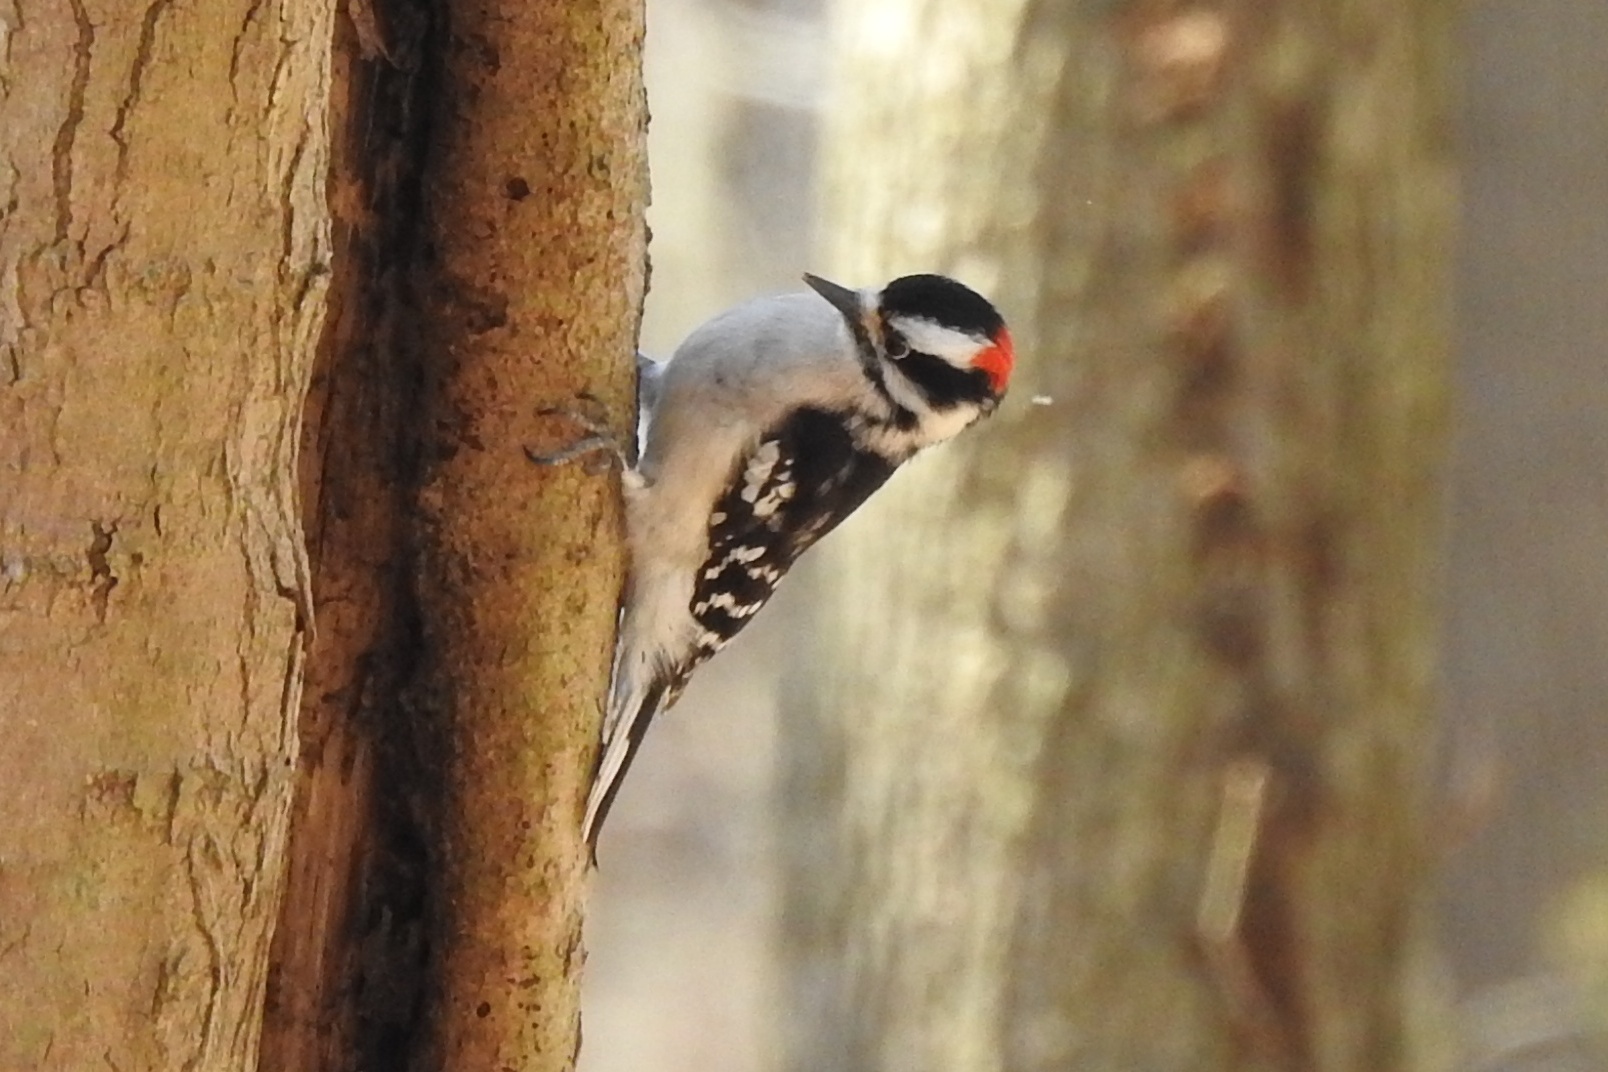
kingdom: Animalia
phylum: Chordata
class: Aves
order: Piciformes
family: Picidae
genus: Dryobates
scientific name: Dryobates pubescens
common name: Downy woodpecker
